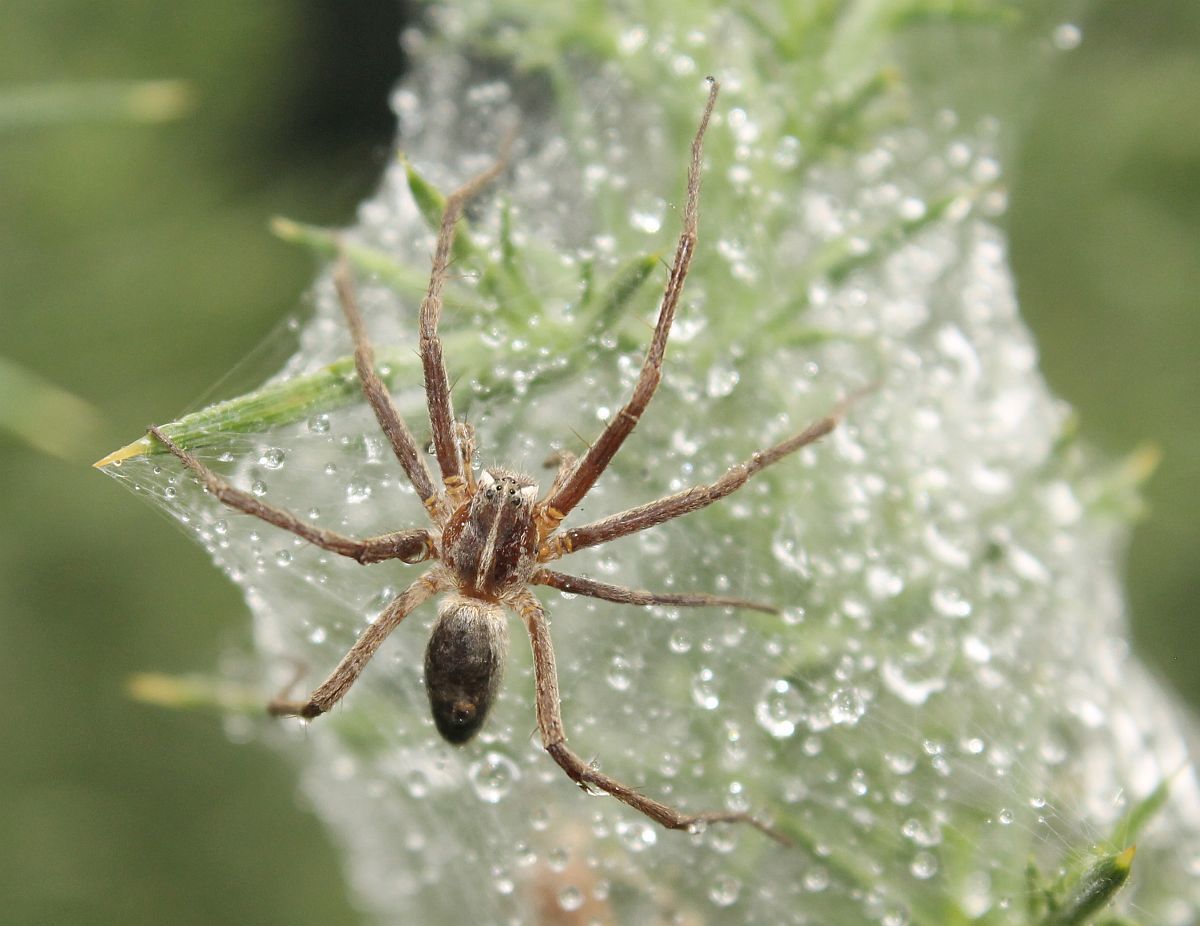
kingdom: Animalia
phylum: Arthropoda
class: Arachnida
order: Araneae
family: Pisauridae
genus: Pisaura
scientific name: Pisaura mirabilis
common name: Tent spider
